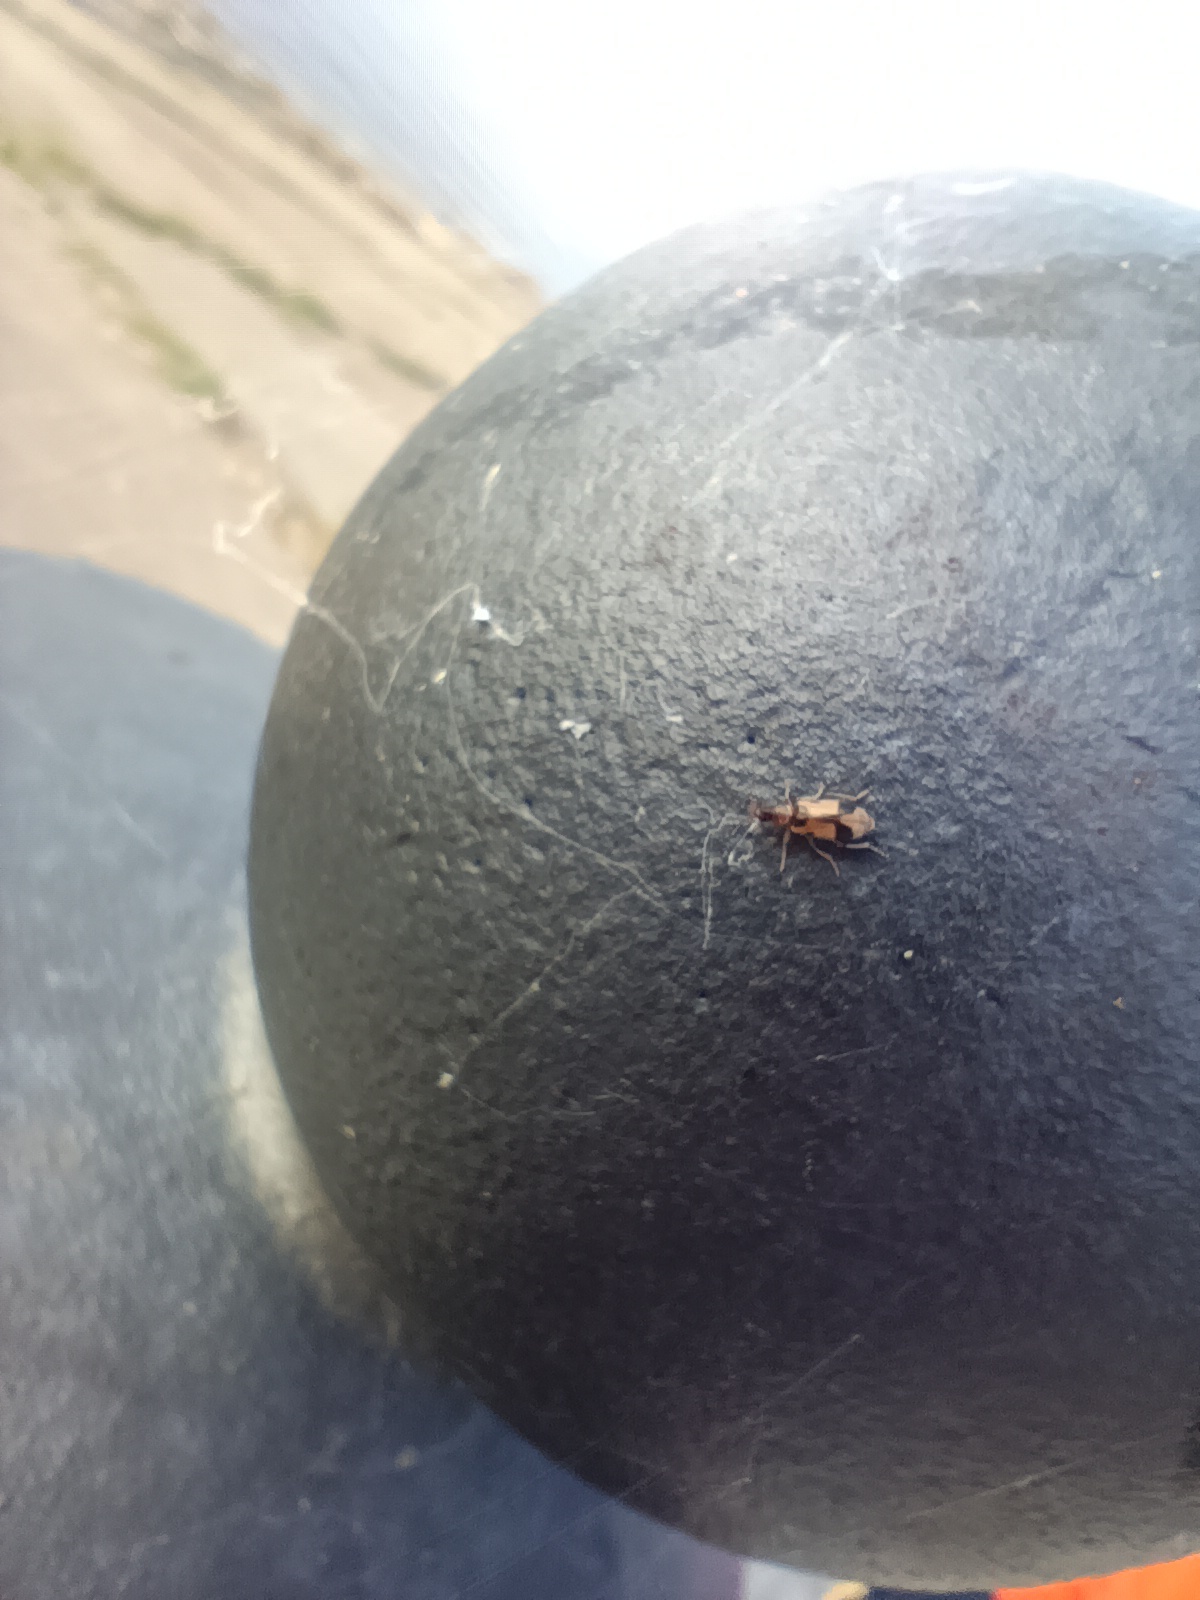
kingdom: Animalia
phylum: Arthropoda
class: Insecta
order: Coleoptera
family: Anthicidae
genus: Notoxus
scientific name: Notoxus monoceros
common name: Monoceros beetle
